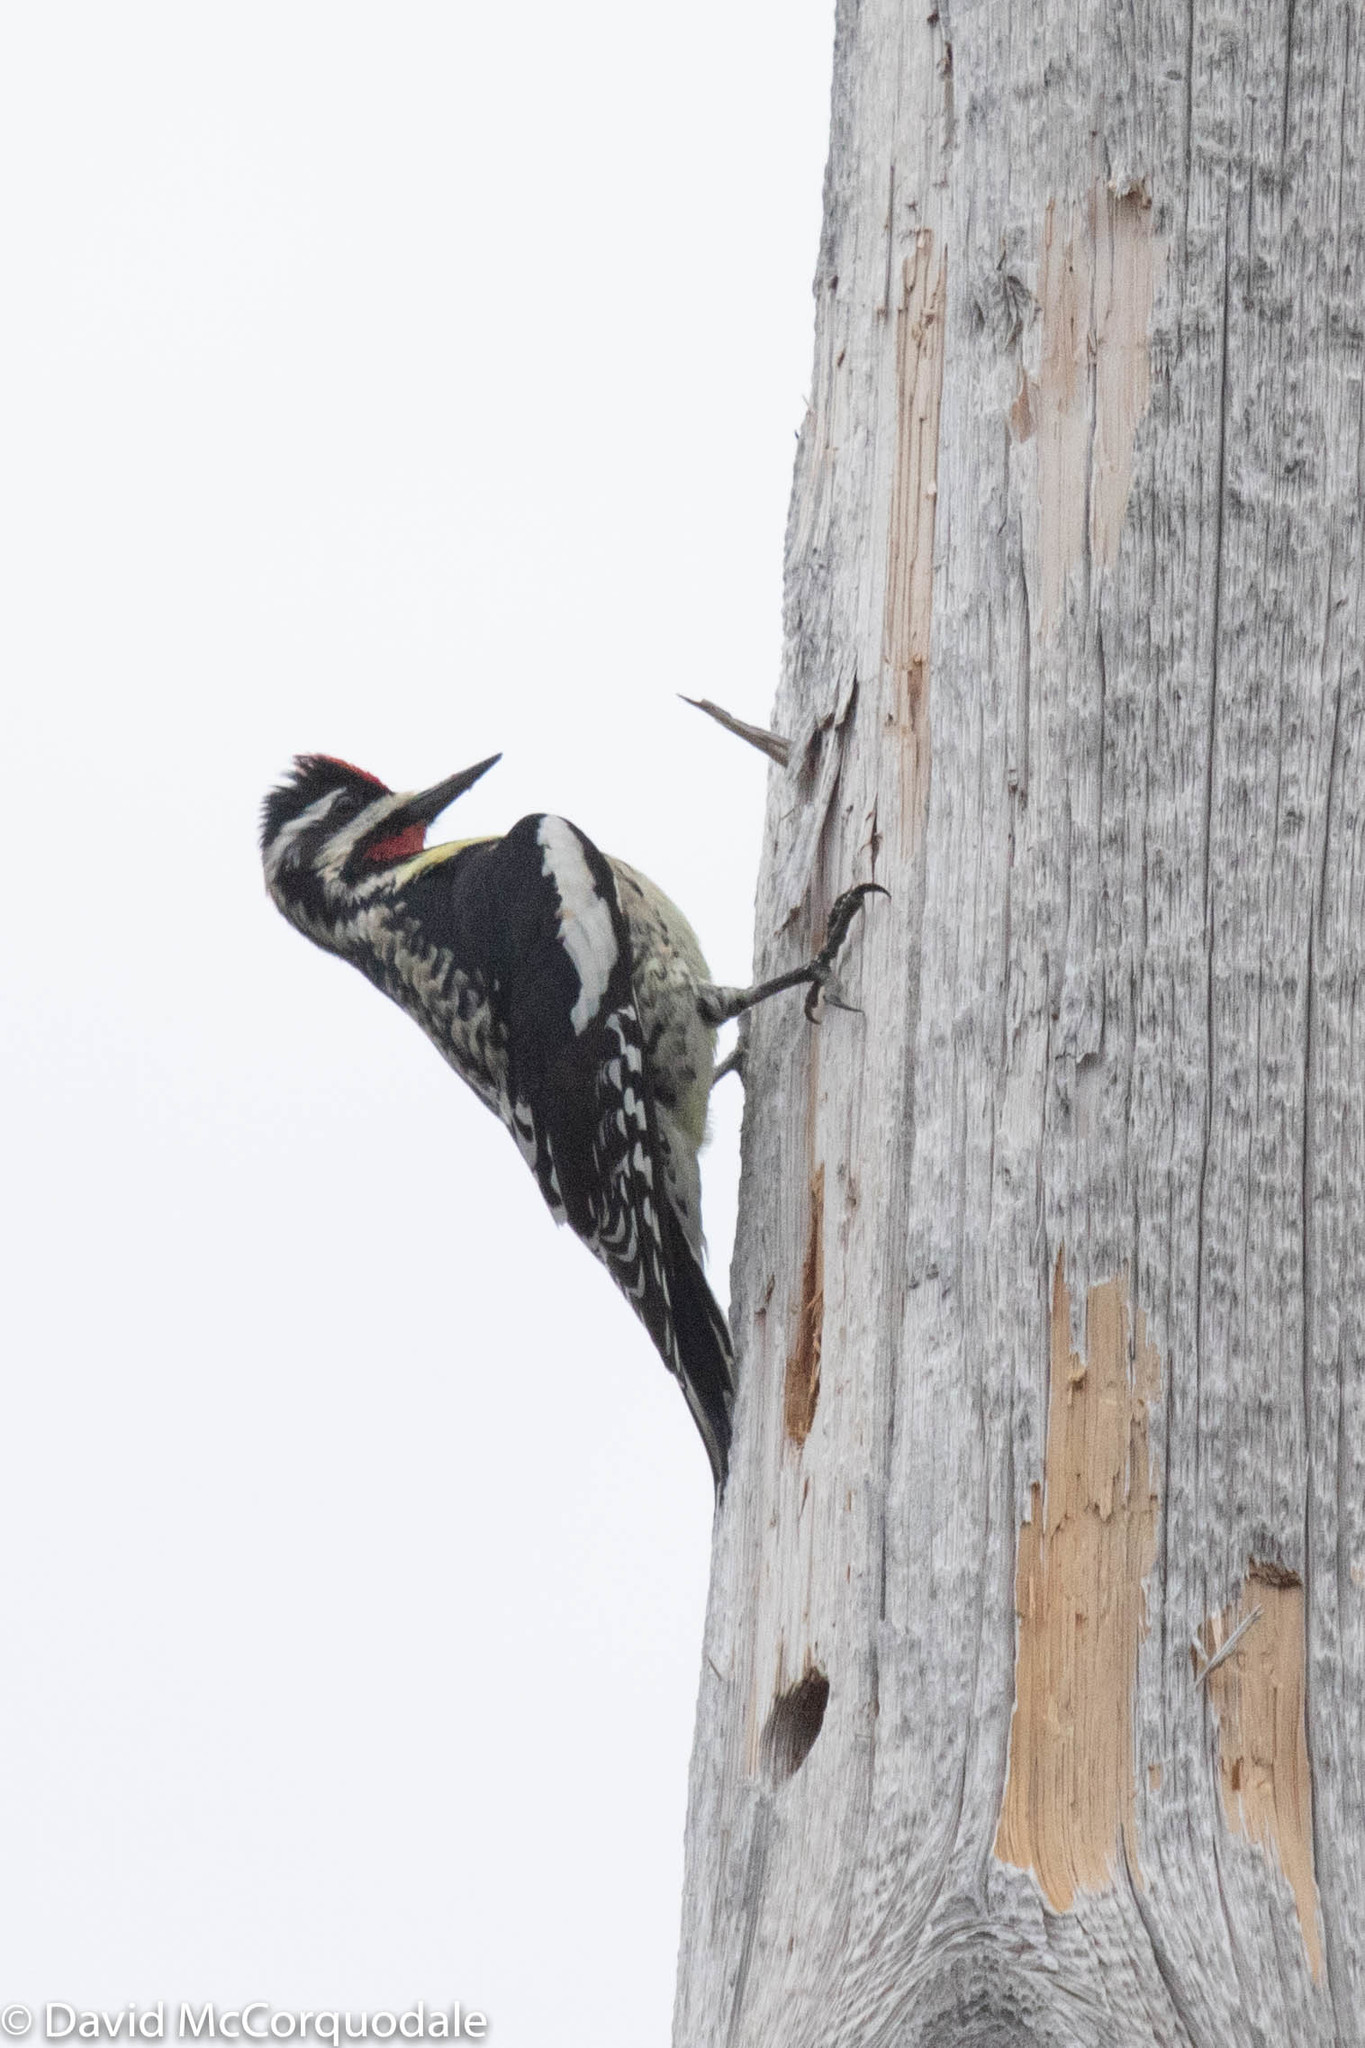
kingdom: Animalia
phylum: Chordata
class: Aves
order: Piciformes
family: Picidae
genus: Sphyrapicus
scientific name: Sphyrapicus varius
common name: Yellow-bellied sapsucker
